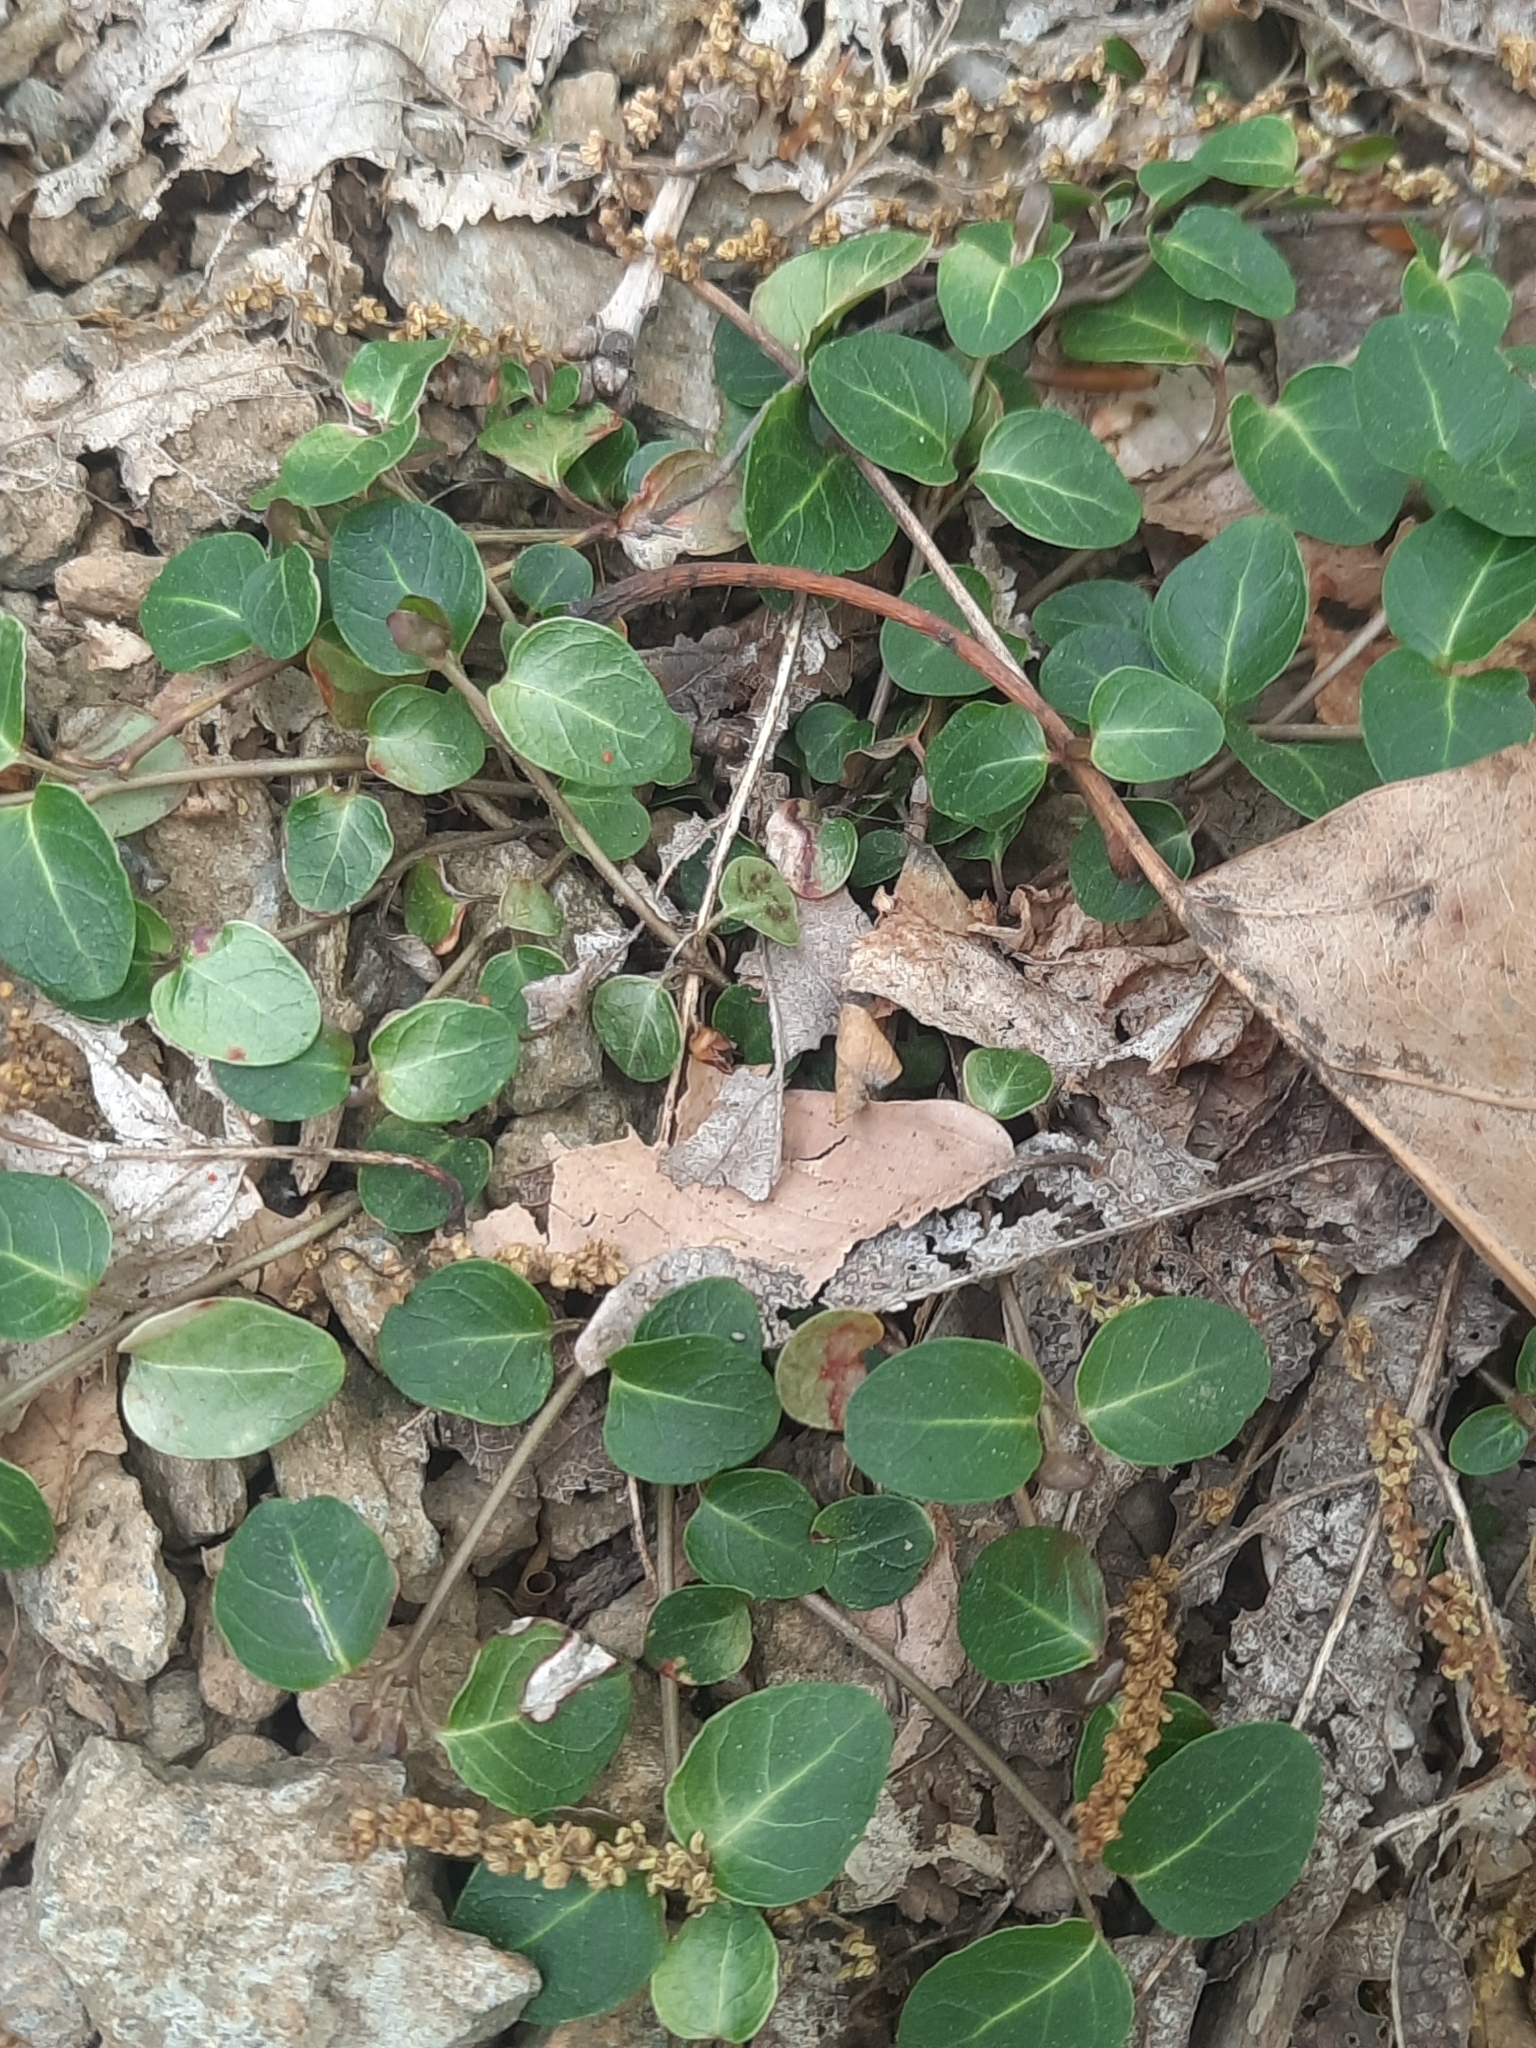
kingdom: Plantae
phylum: Tracheophyta
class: Magnoliopsida
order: Gentianales
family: Rubiaceae
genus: Mitchella
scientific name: Mitchella repens
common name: Partridge-berry
